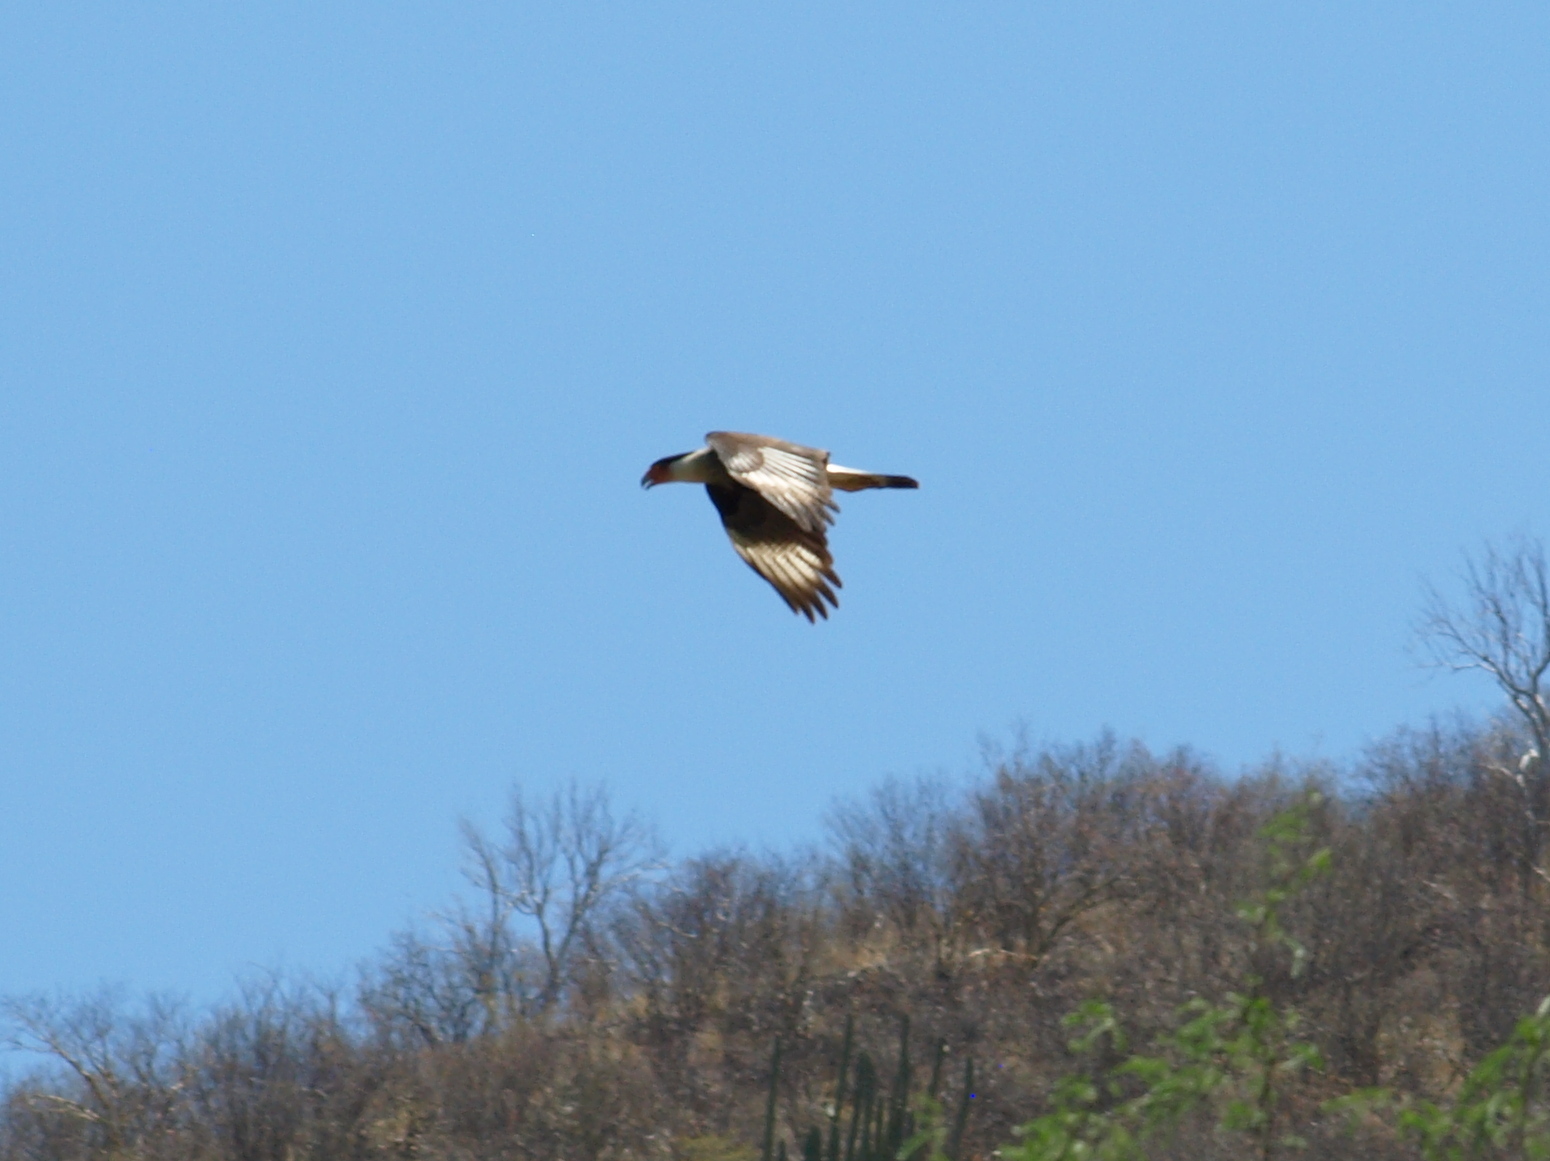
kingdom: Animalia
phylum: Chordata
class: Aves
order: Falconiformes
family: Falconidae
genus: Caracara
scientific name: Caracara plancus
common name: Southern caracara
